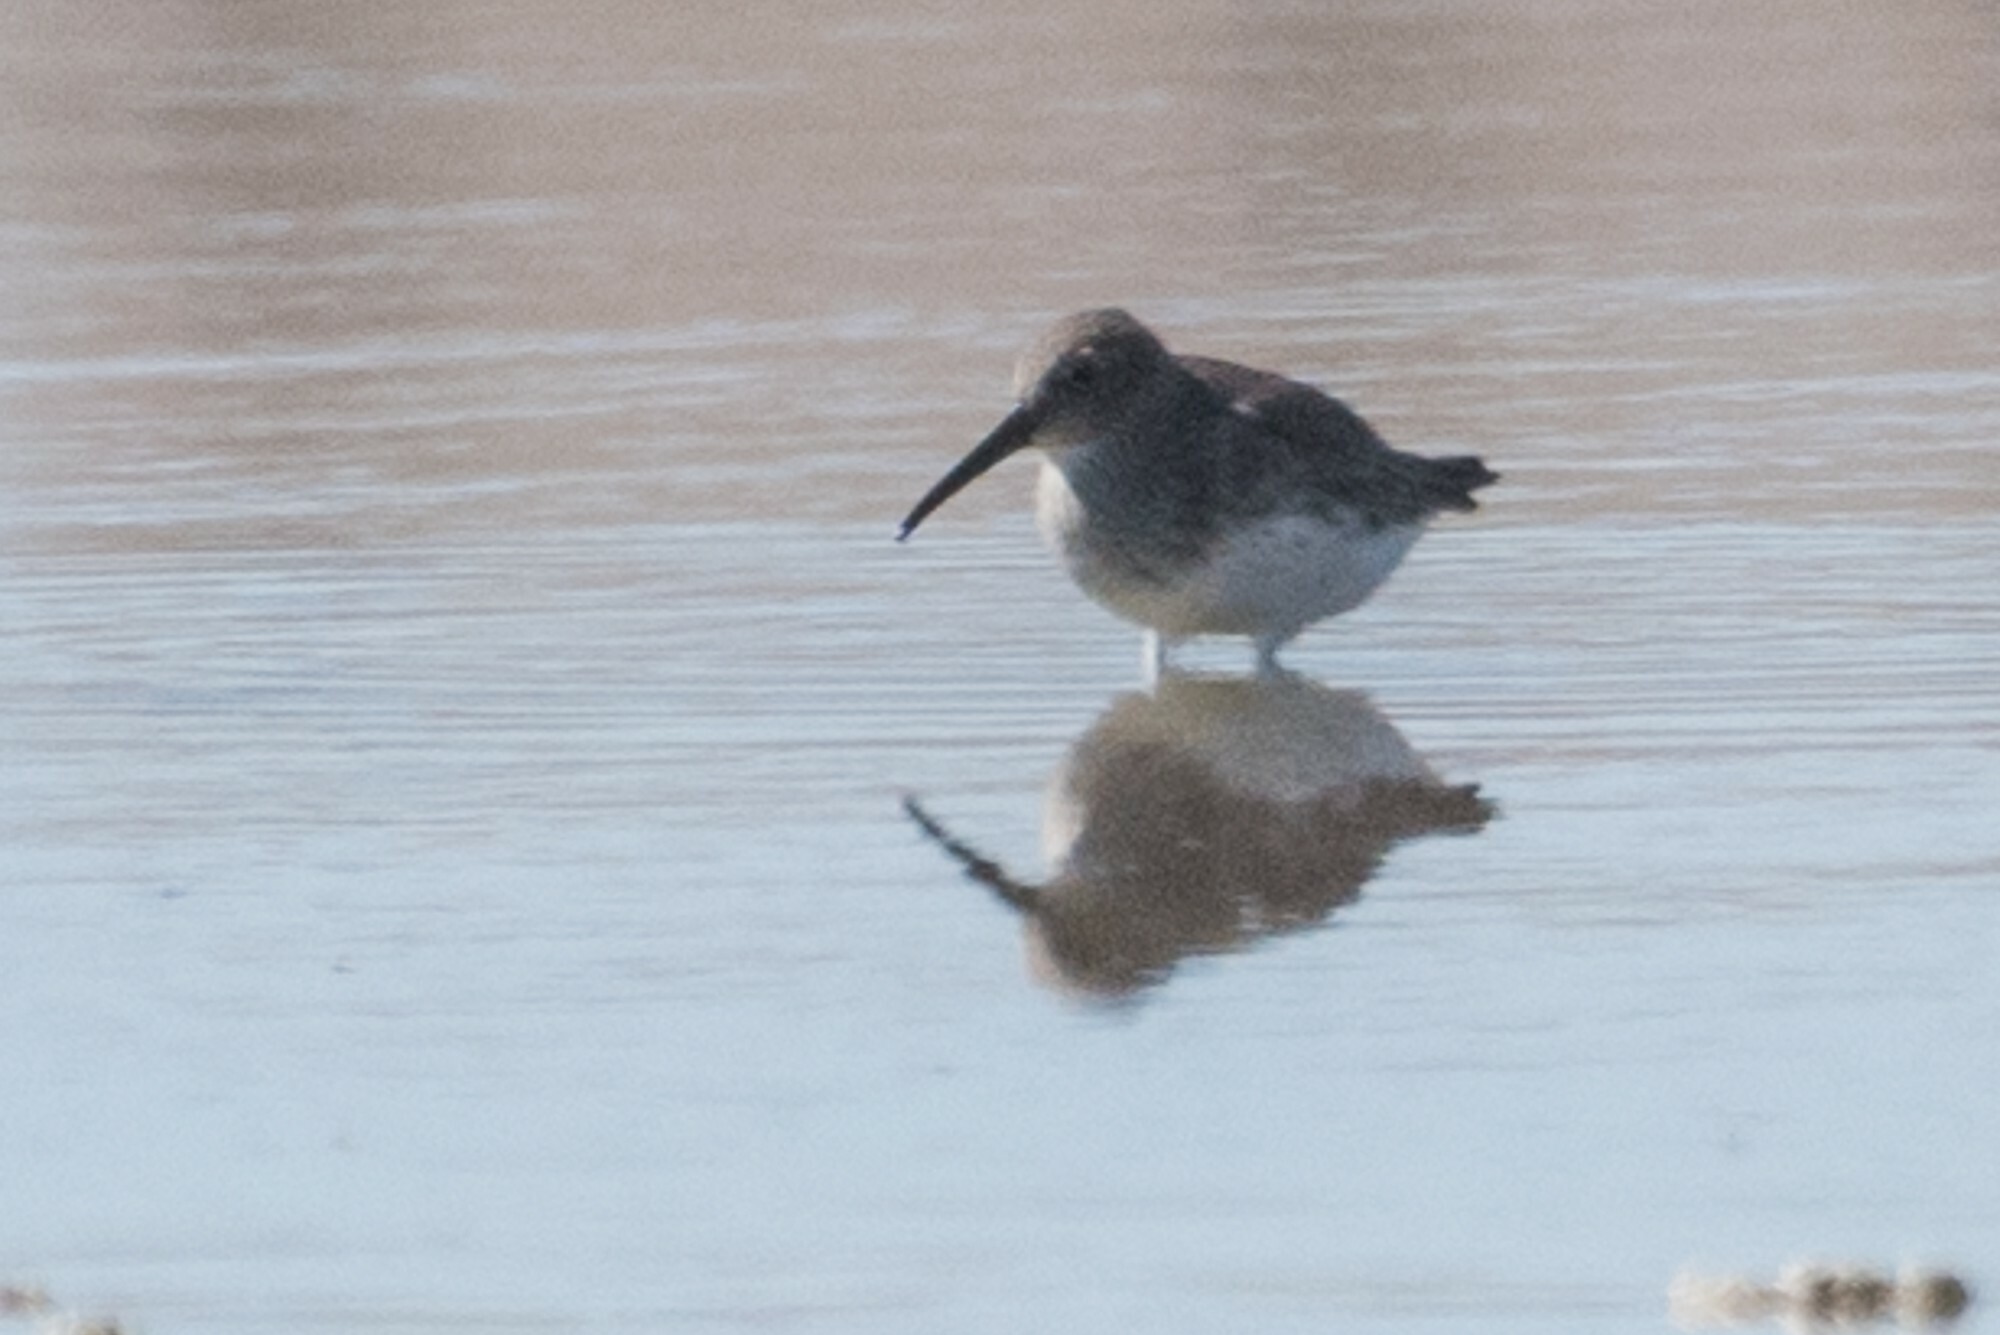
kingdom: Animalia
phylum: Chordata
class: Aves
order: Charadriiformes
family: Scolopacidae
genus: Calidris
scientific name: Calidris alpina
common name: Dunlin
